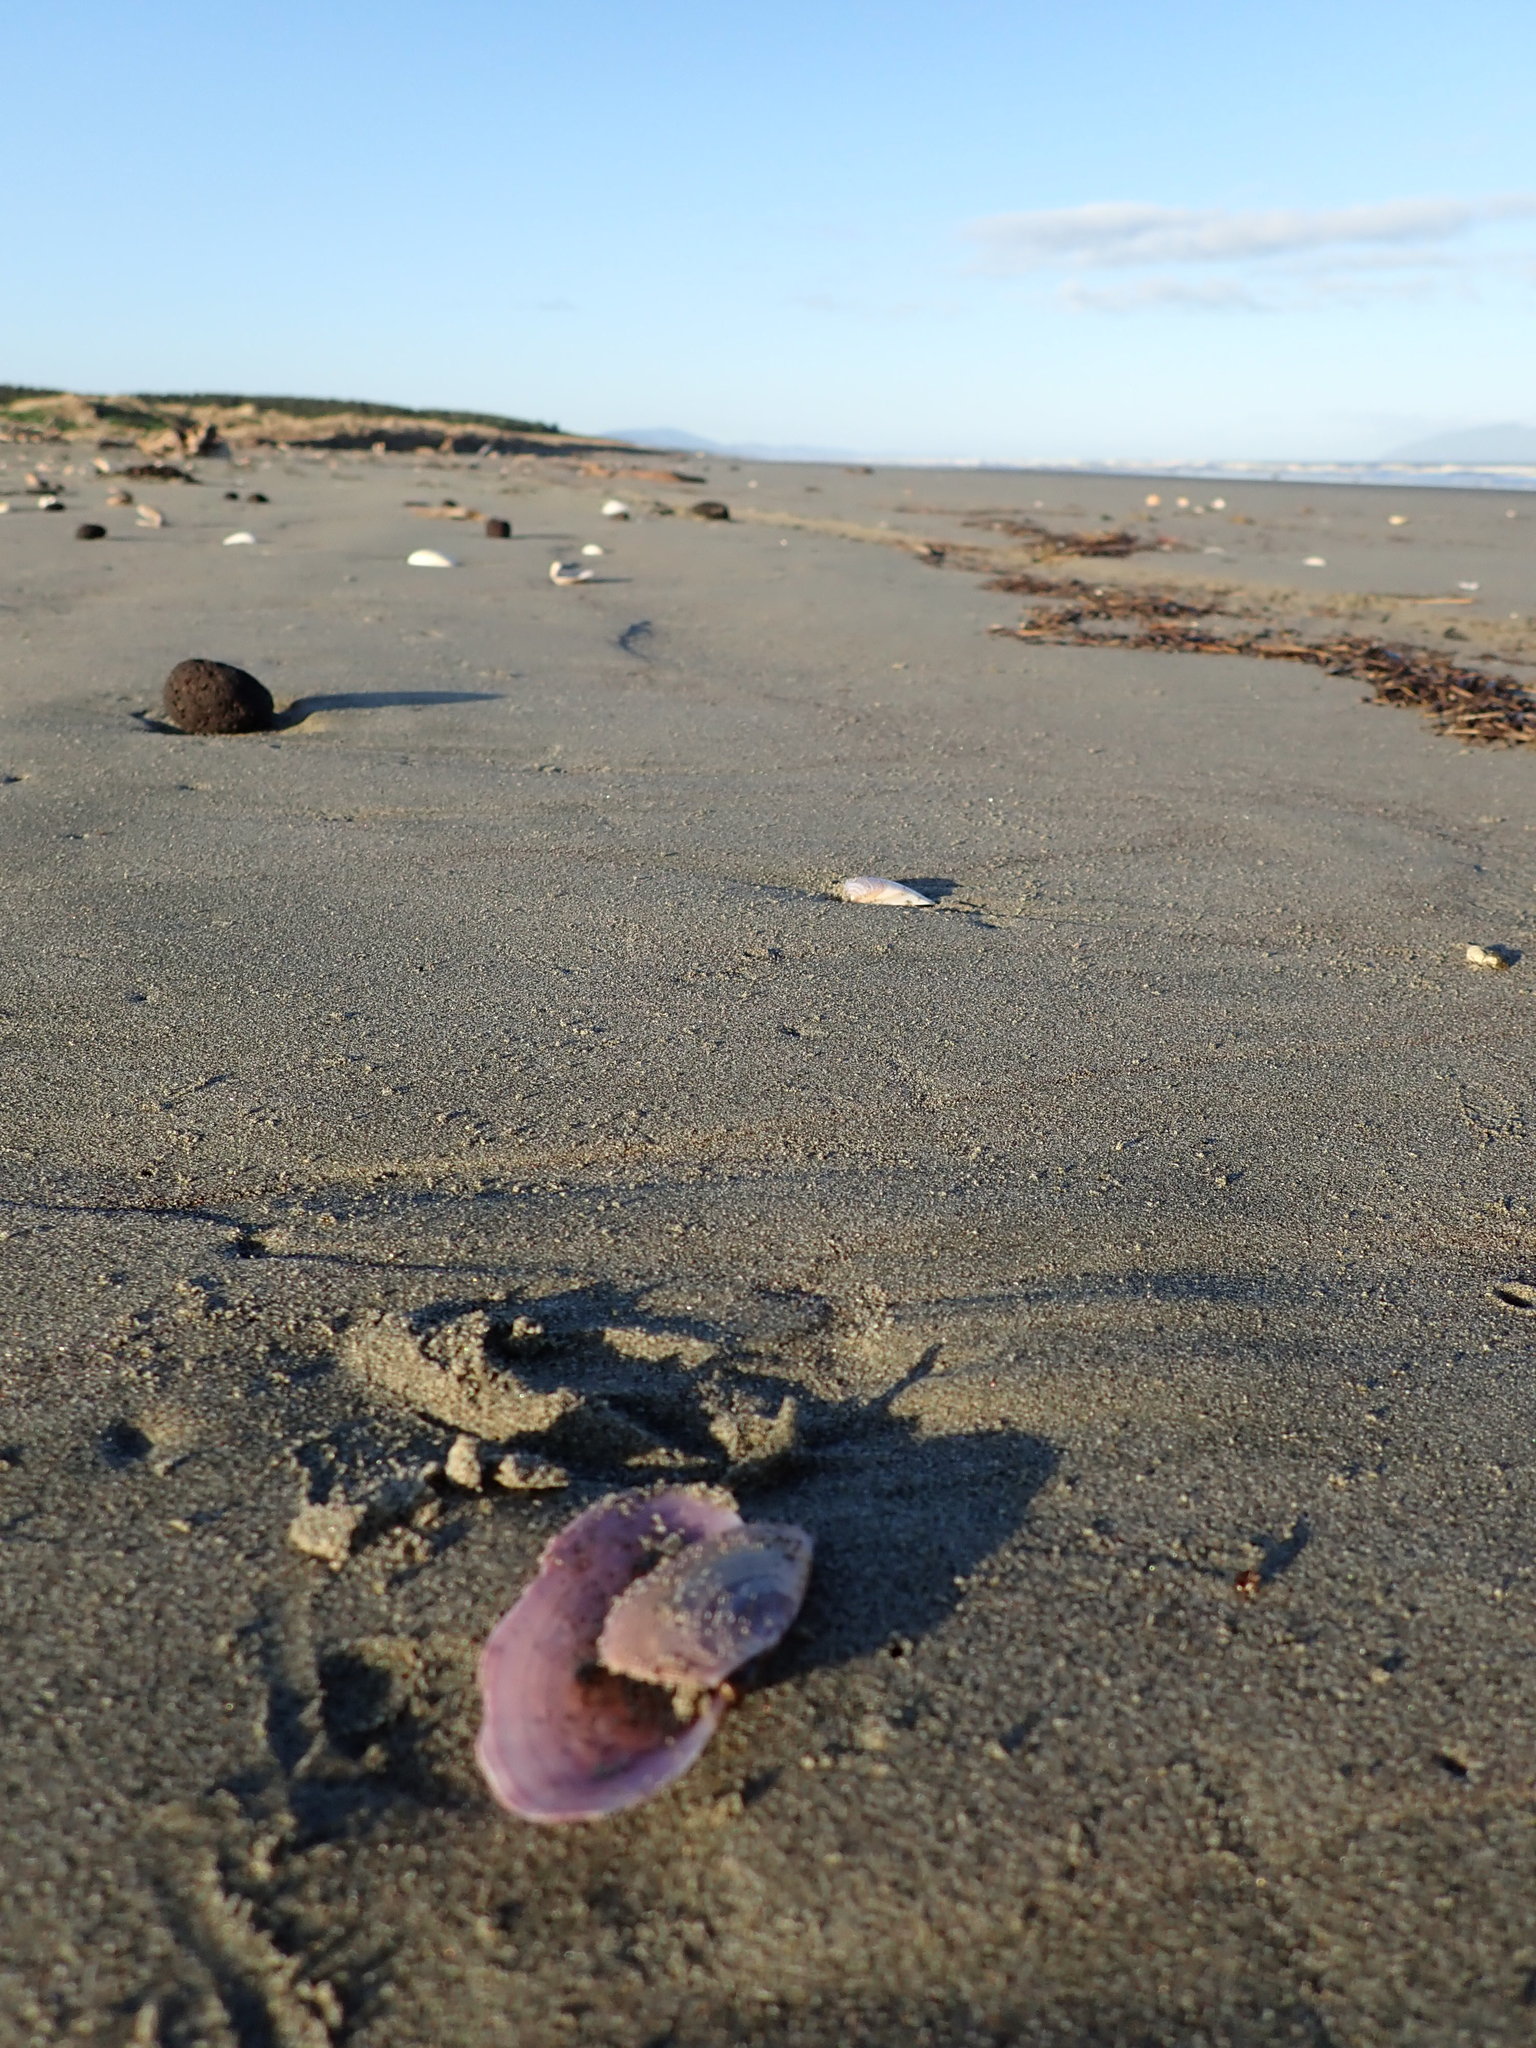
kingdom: Animalia
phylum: Mollusca
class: Bivalvia
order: Cardiida
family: Psammobiidae
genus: Gari
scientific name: Gari lineolata
